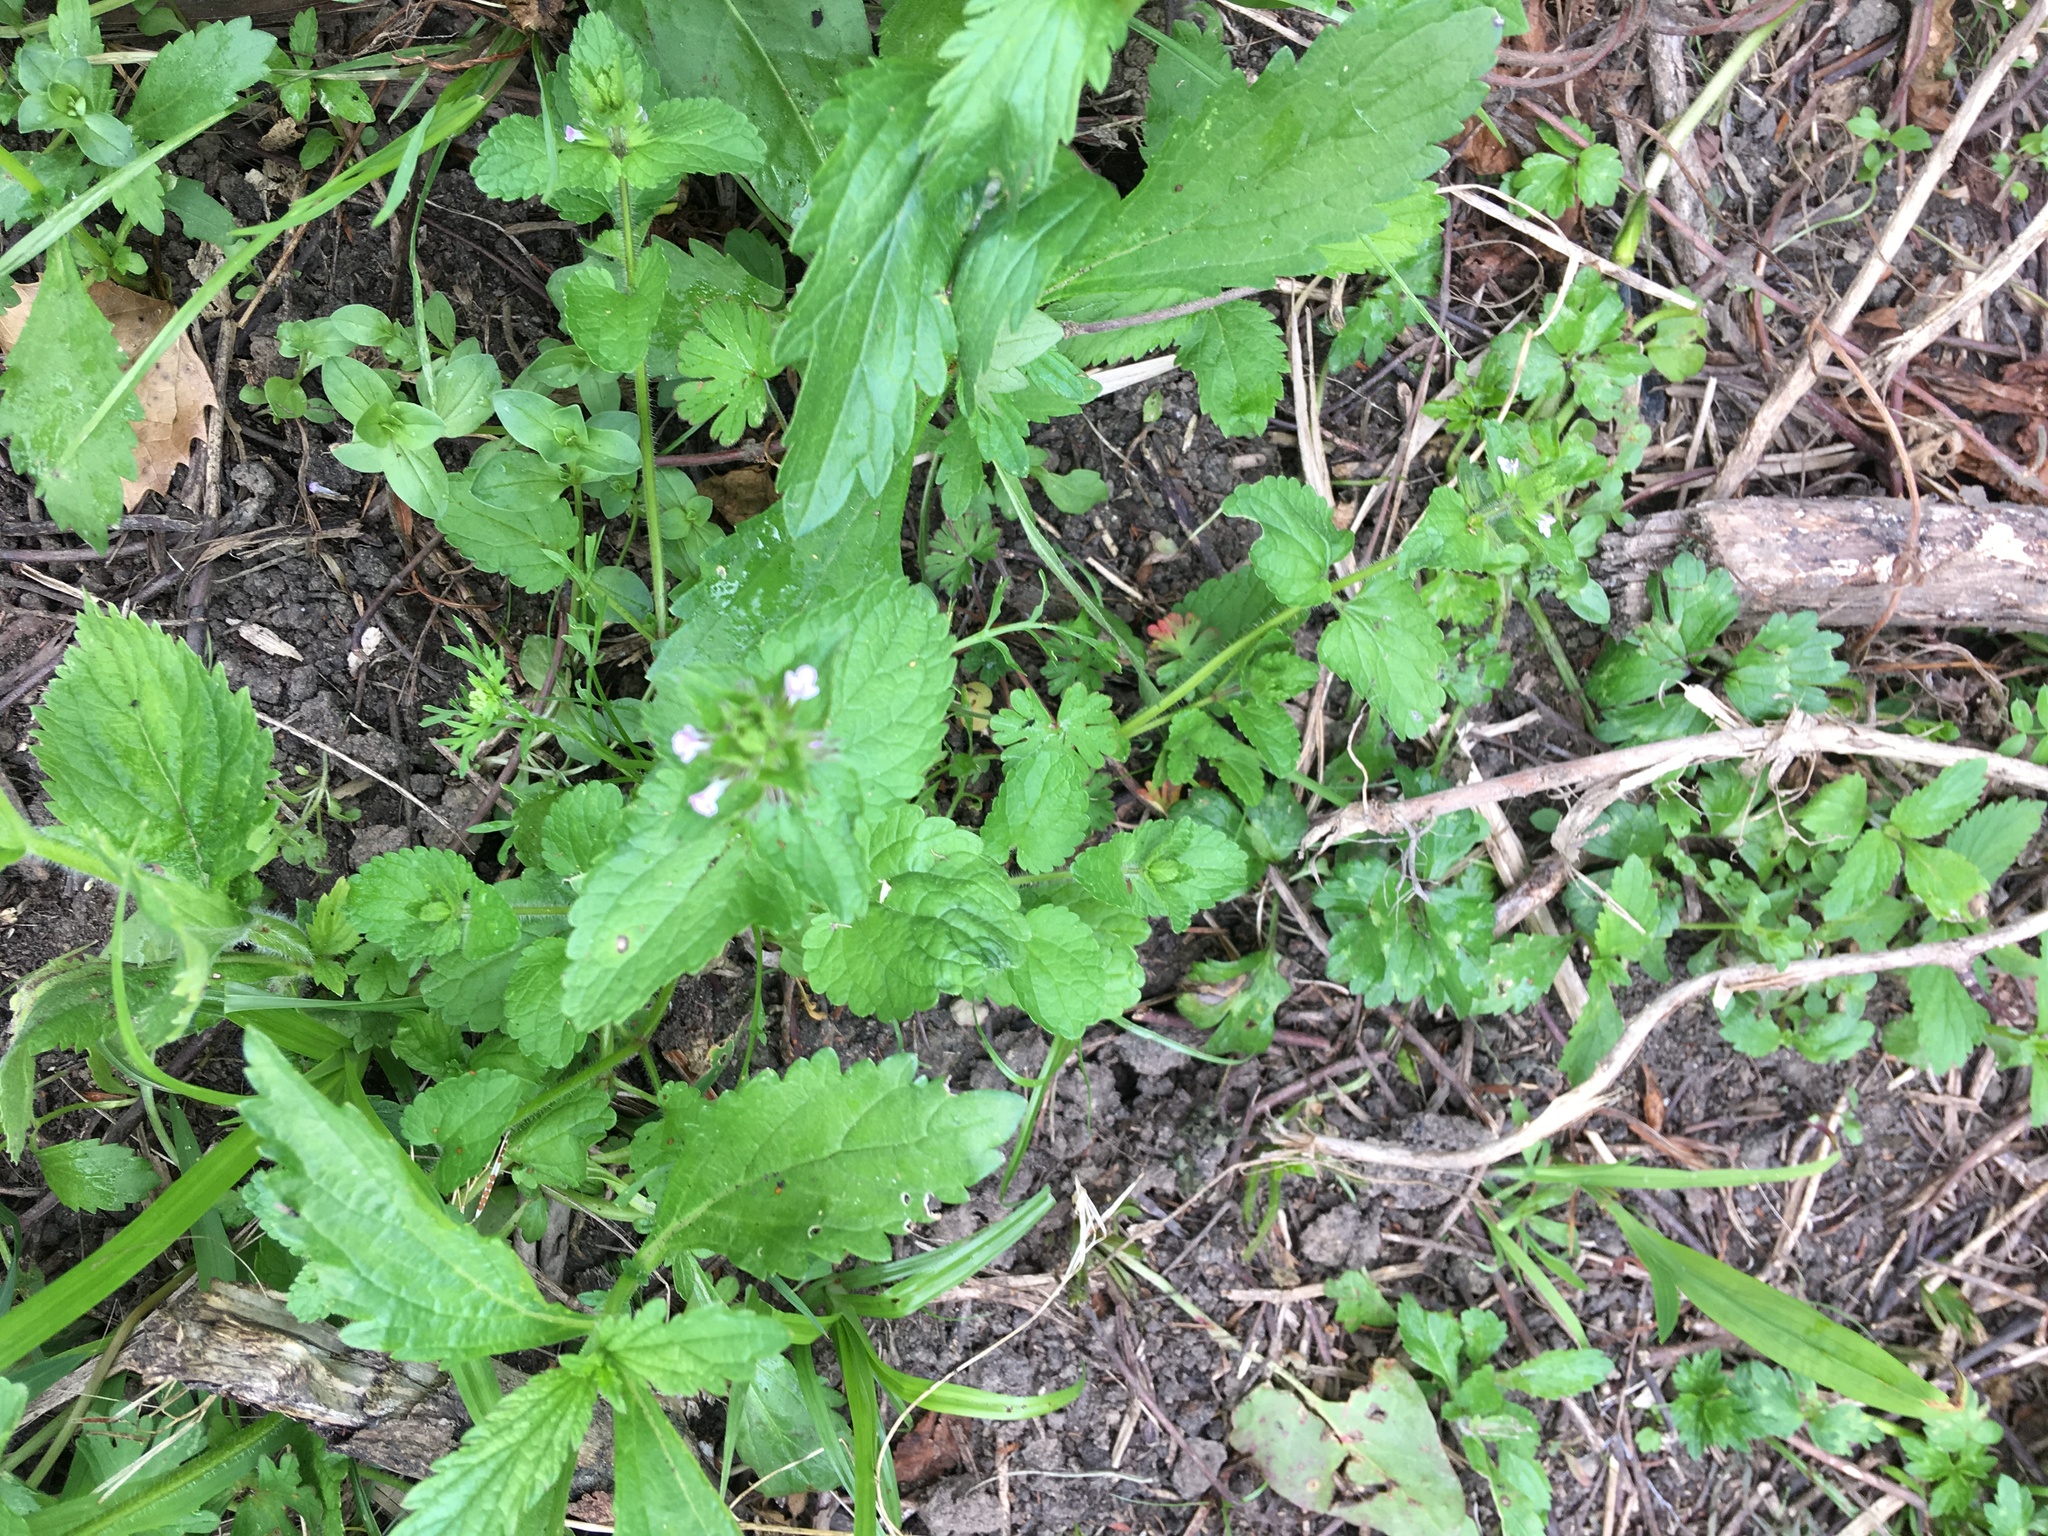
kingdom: Plantae
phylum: Tracheophyta
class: Magnoliopsida
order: Lamiales
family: Lamiaceae
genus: Stachys
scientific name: Stachys arvensis
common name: Field woundwort
